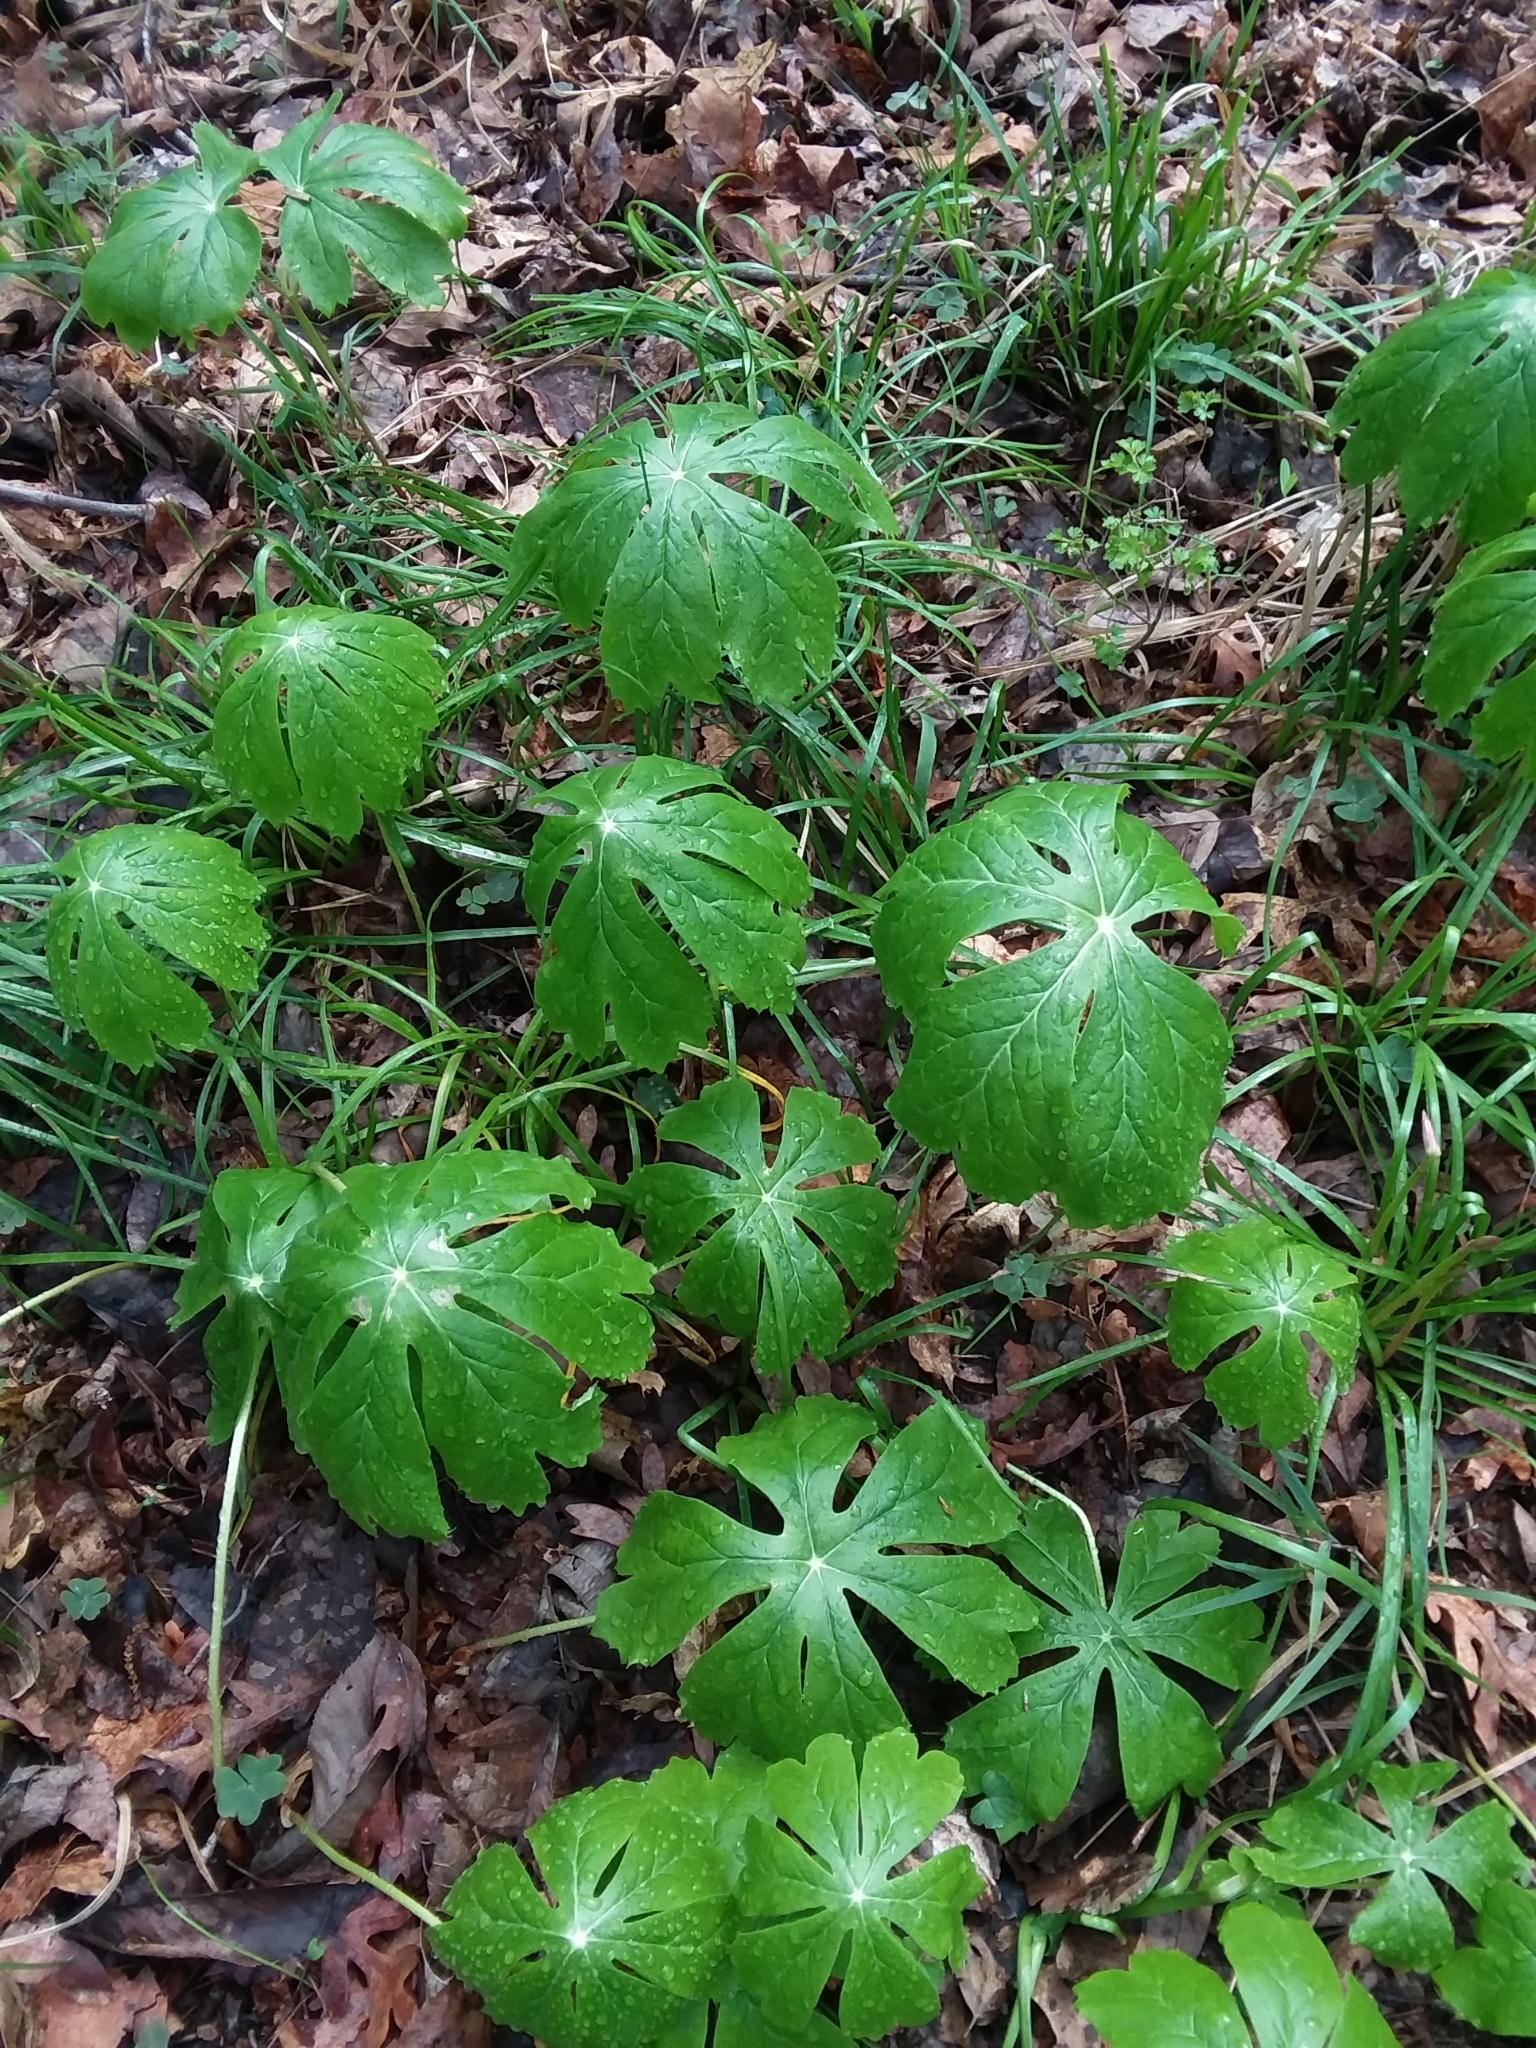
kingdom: Plantae
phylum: Tracheophyta
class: Magnoliopsida
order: Ranunculales
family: Berberidaceae
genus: Podophyllum
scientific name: Podophyllum peltatum
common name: Wild mandrake
